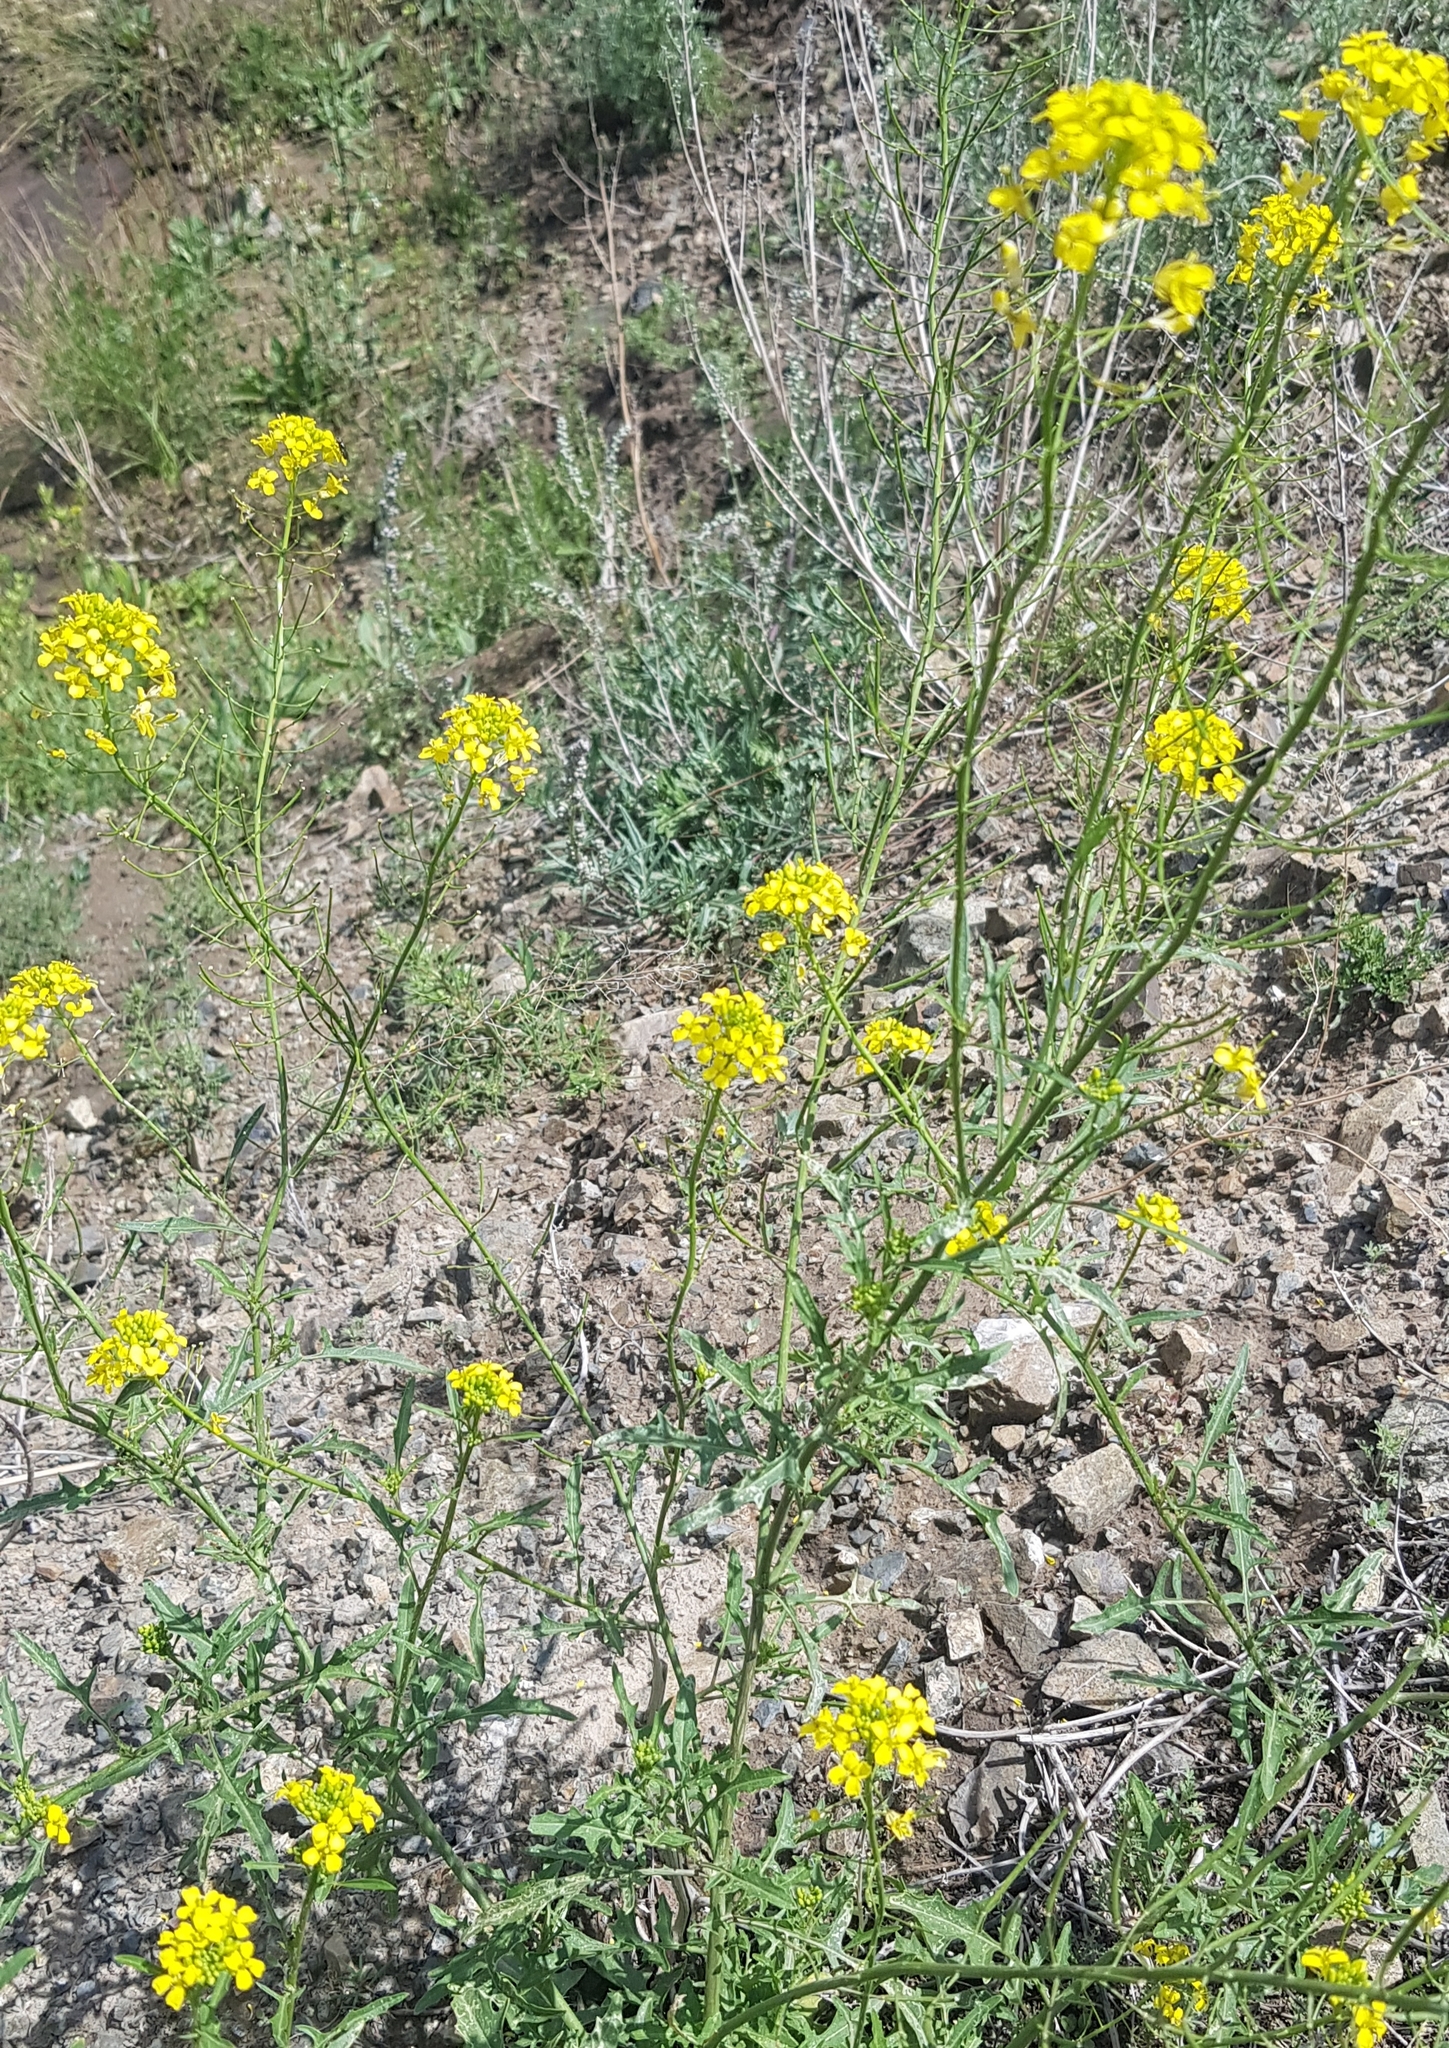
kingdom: Plantae
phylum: Tracheophyta
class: Magnoliopsida
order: Brassicales
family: Brassicaceae
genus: Erysimum
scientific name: Erysimum cheiranthoides
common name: Treacle mustard
